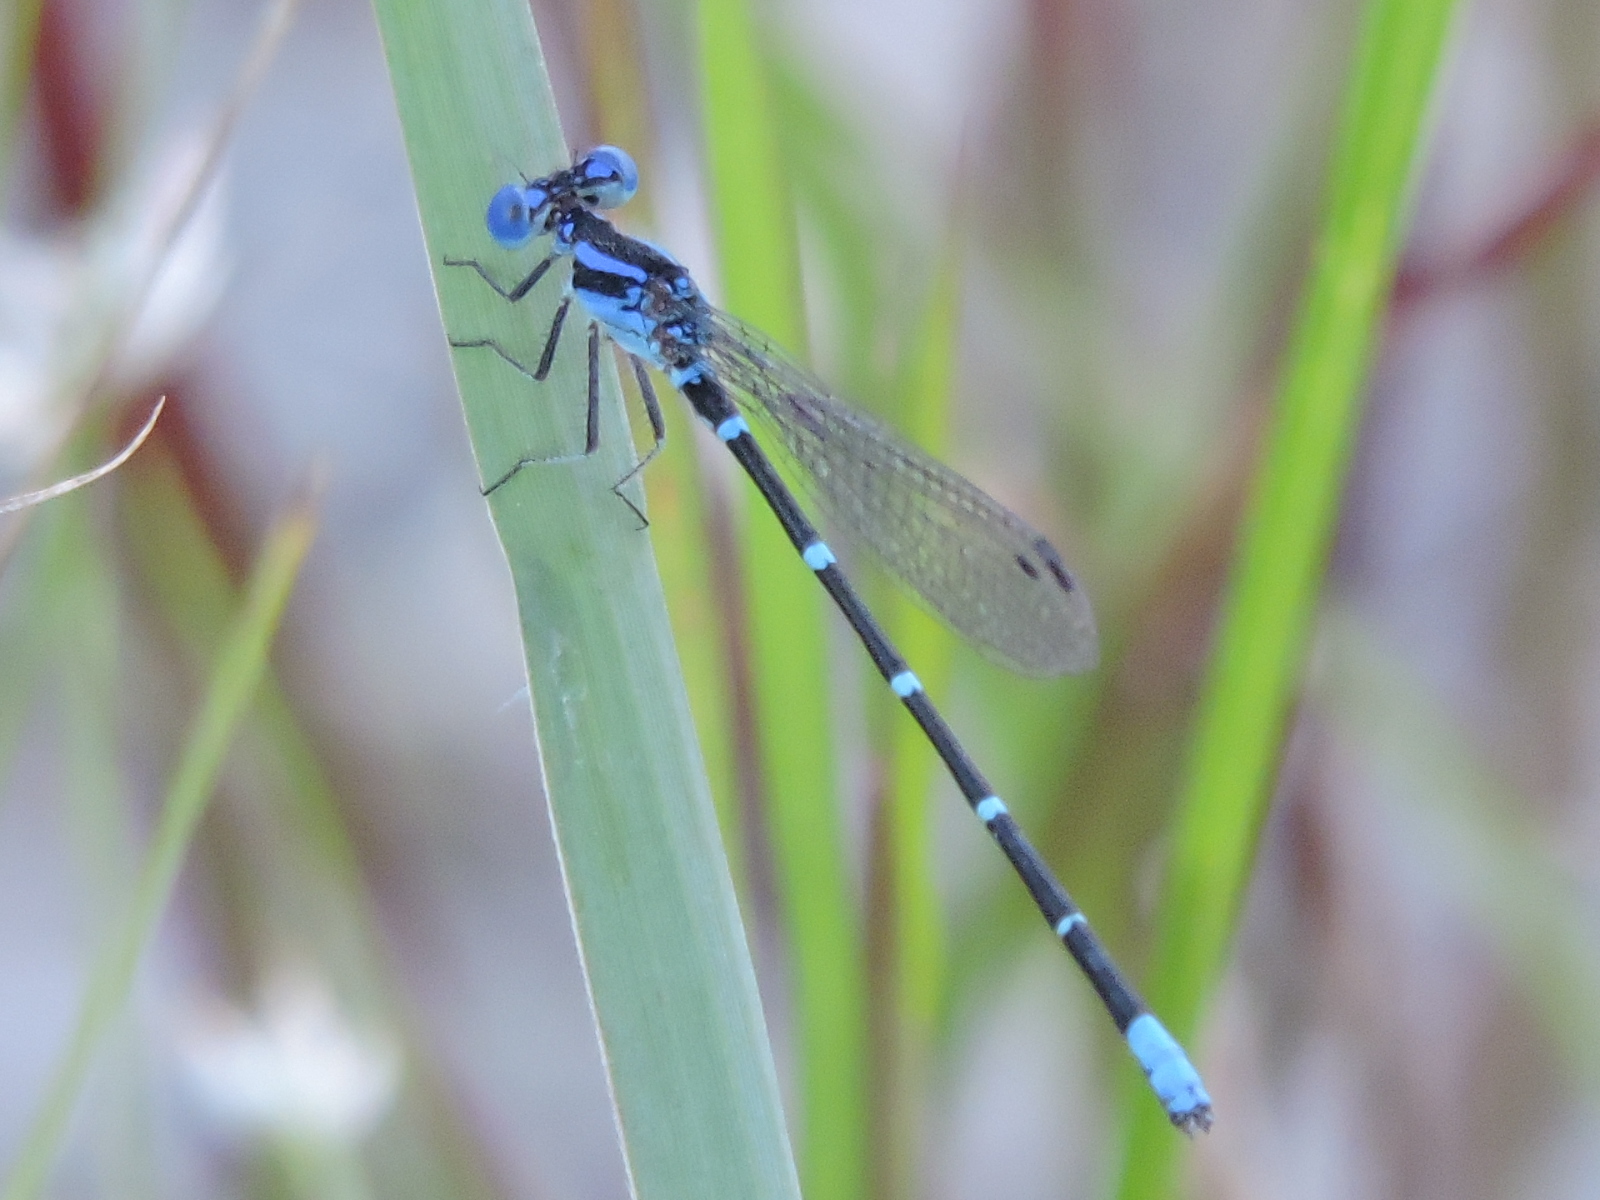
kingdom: Animalia
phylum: Arthropoda
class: Insecta
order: Odonata
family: Coenagrionidae
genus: Argia
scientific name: Argia sedula
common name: Blue-ringed dancer
